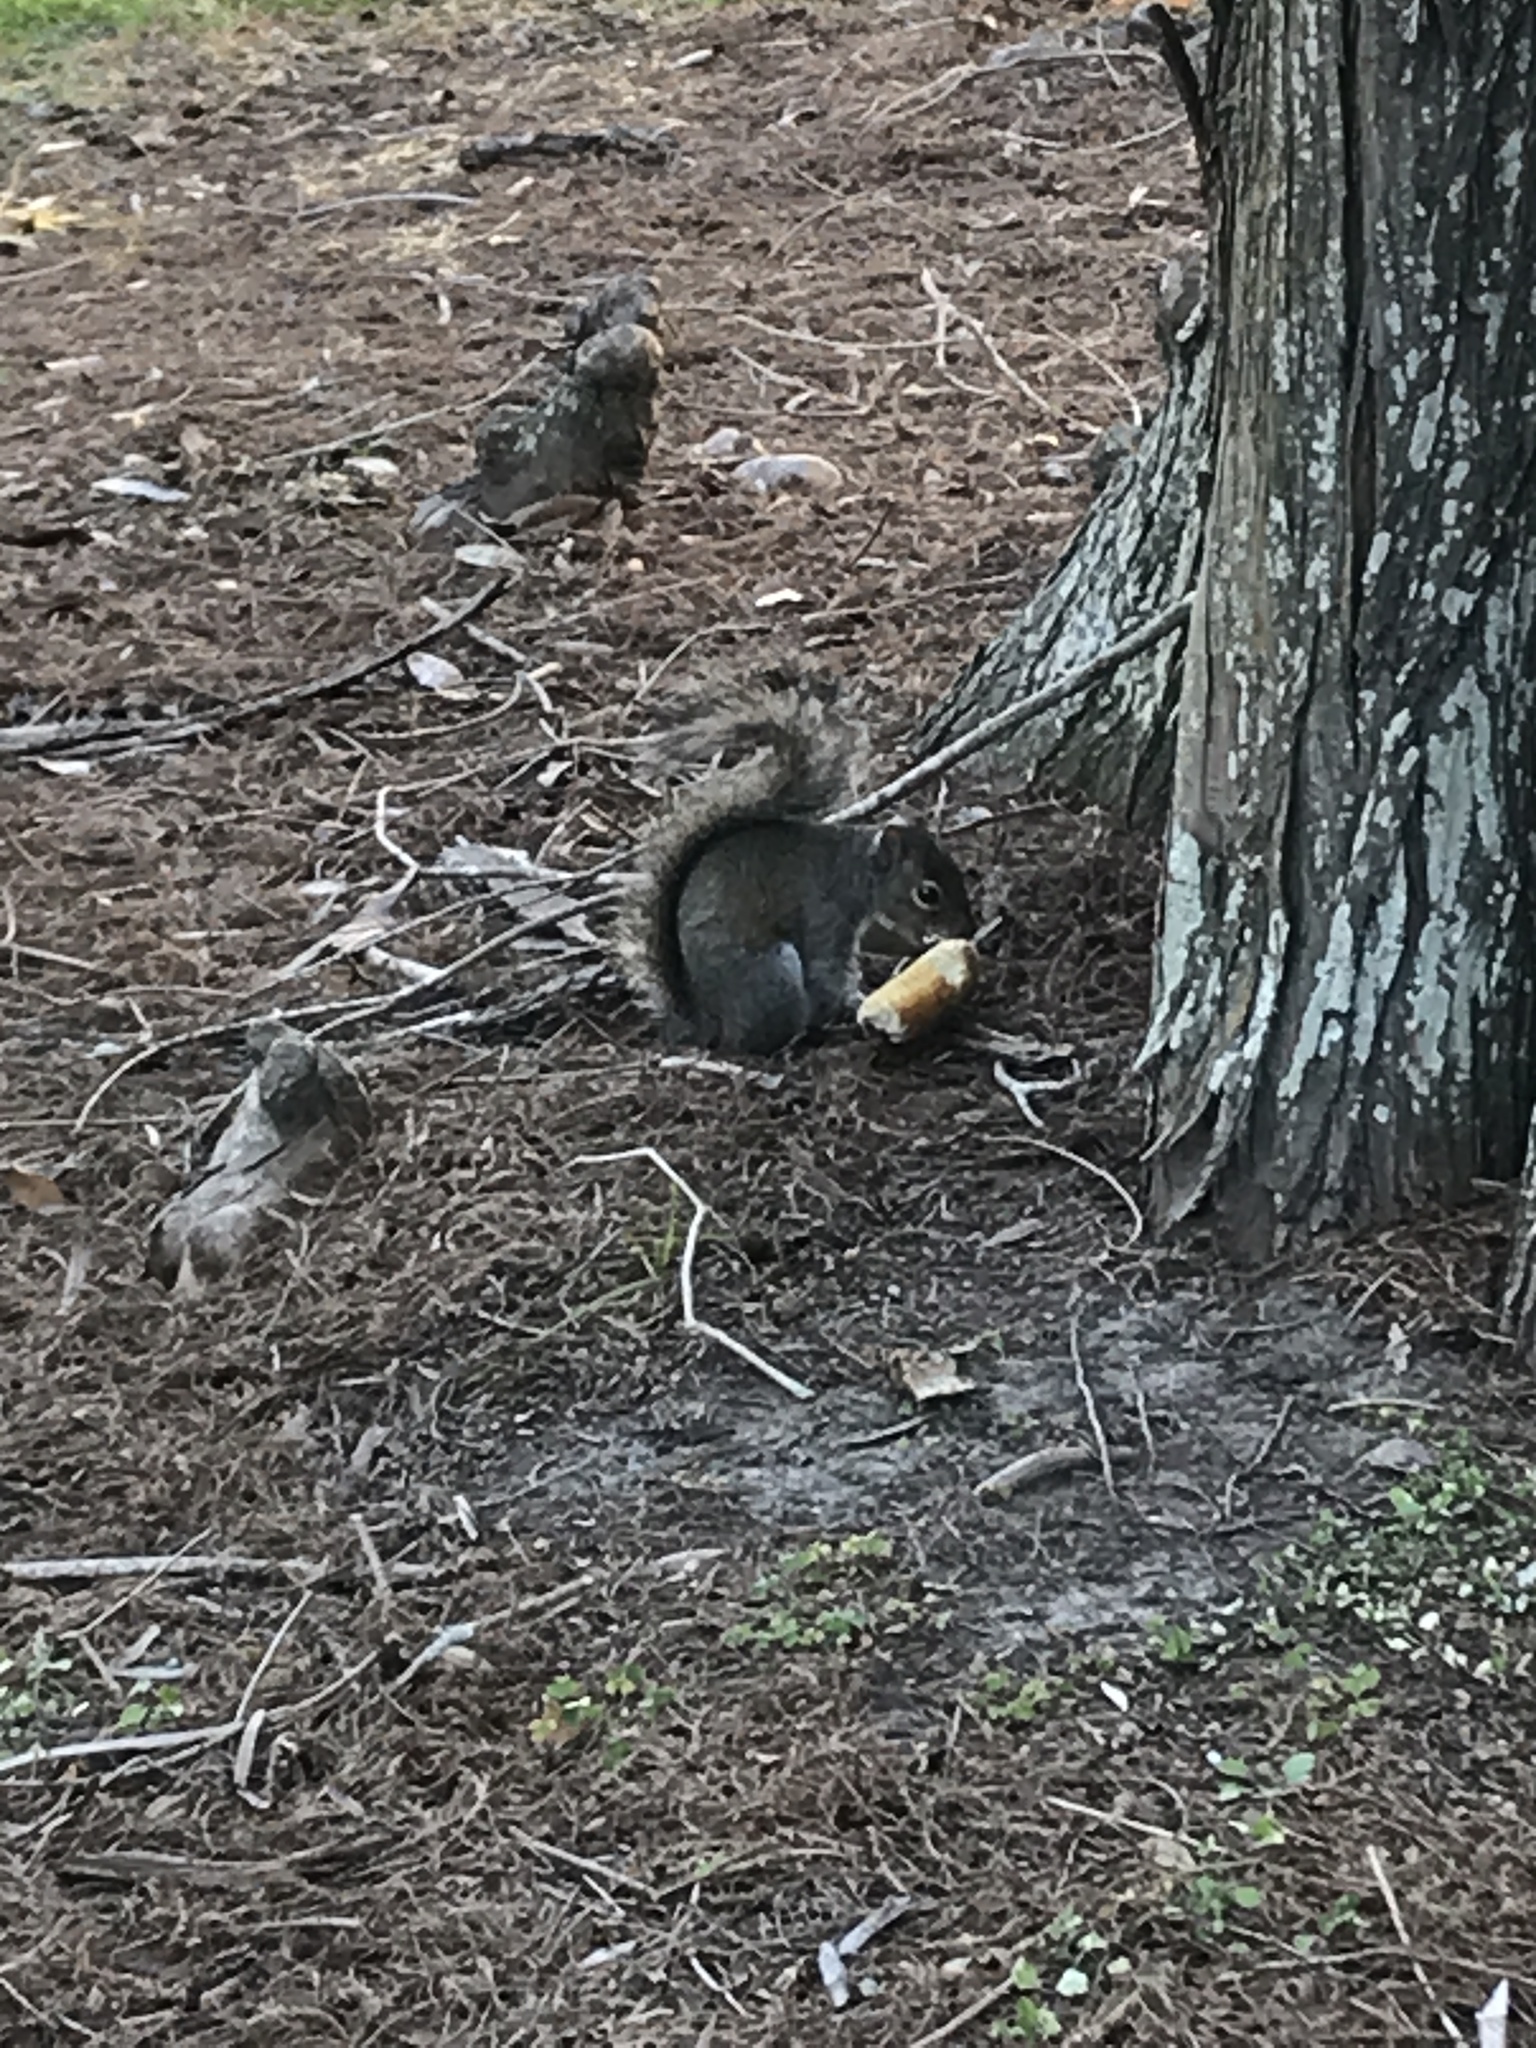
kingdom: Animalia
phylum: Chordata
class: Mammalia
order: Rodentia
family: Sciuridae
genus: Sciurus
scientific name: Sciurus carolinensis
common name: Eastern gray squirrel
